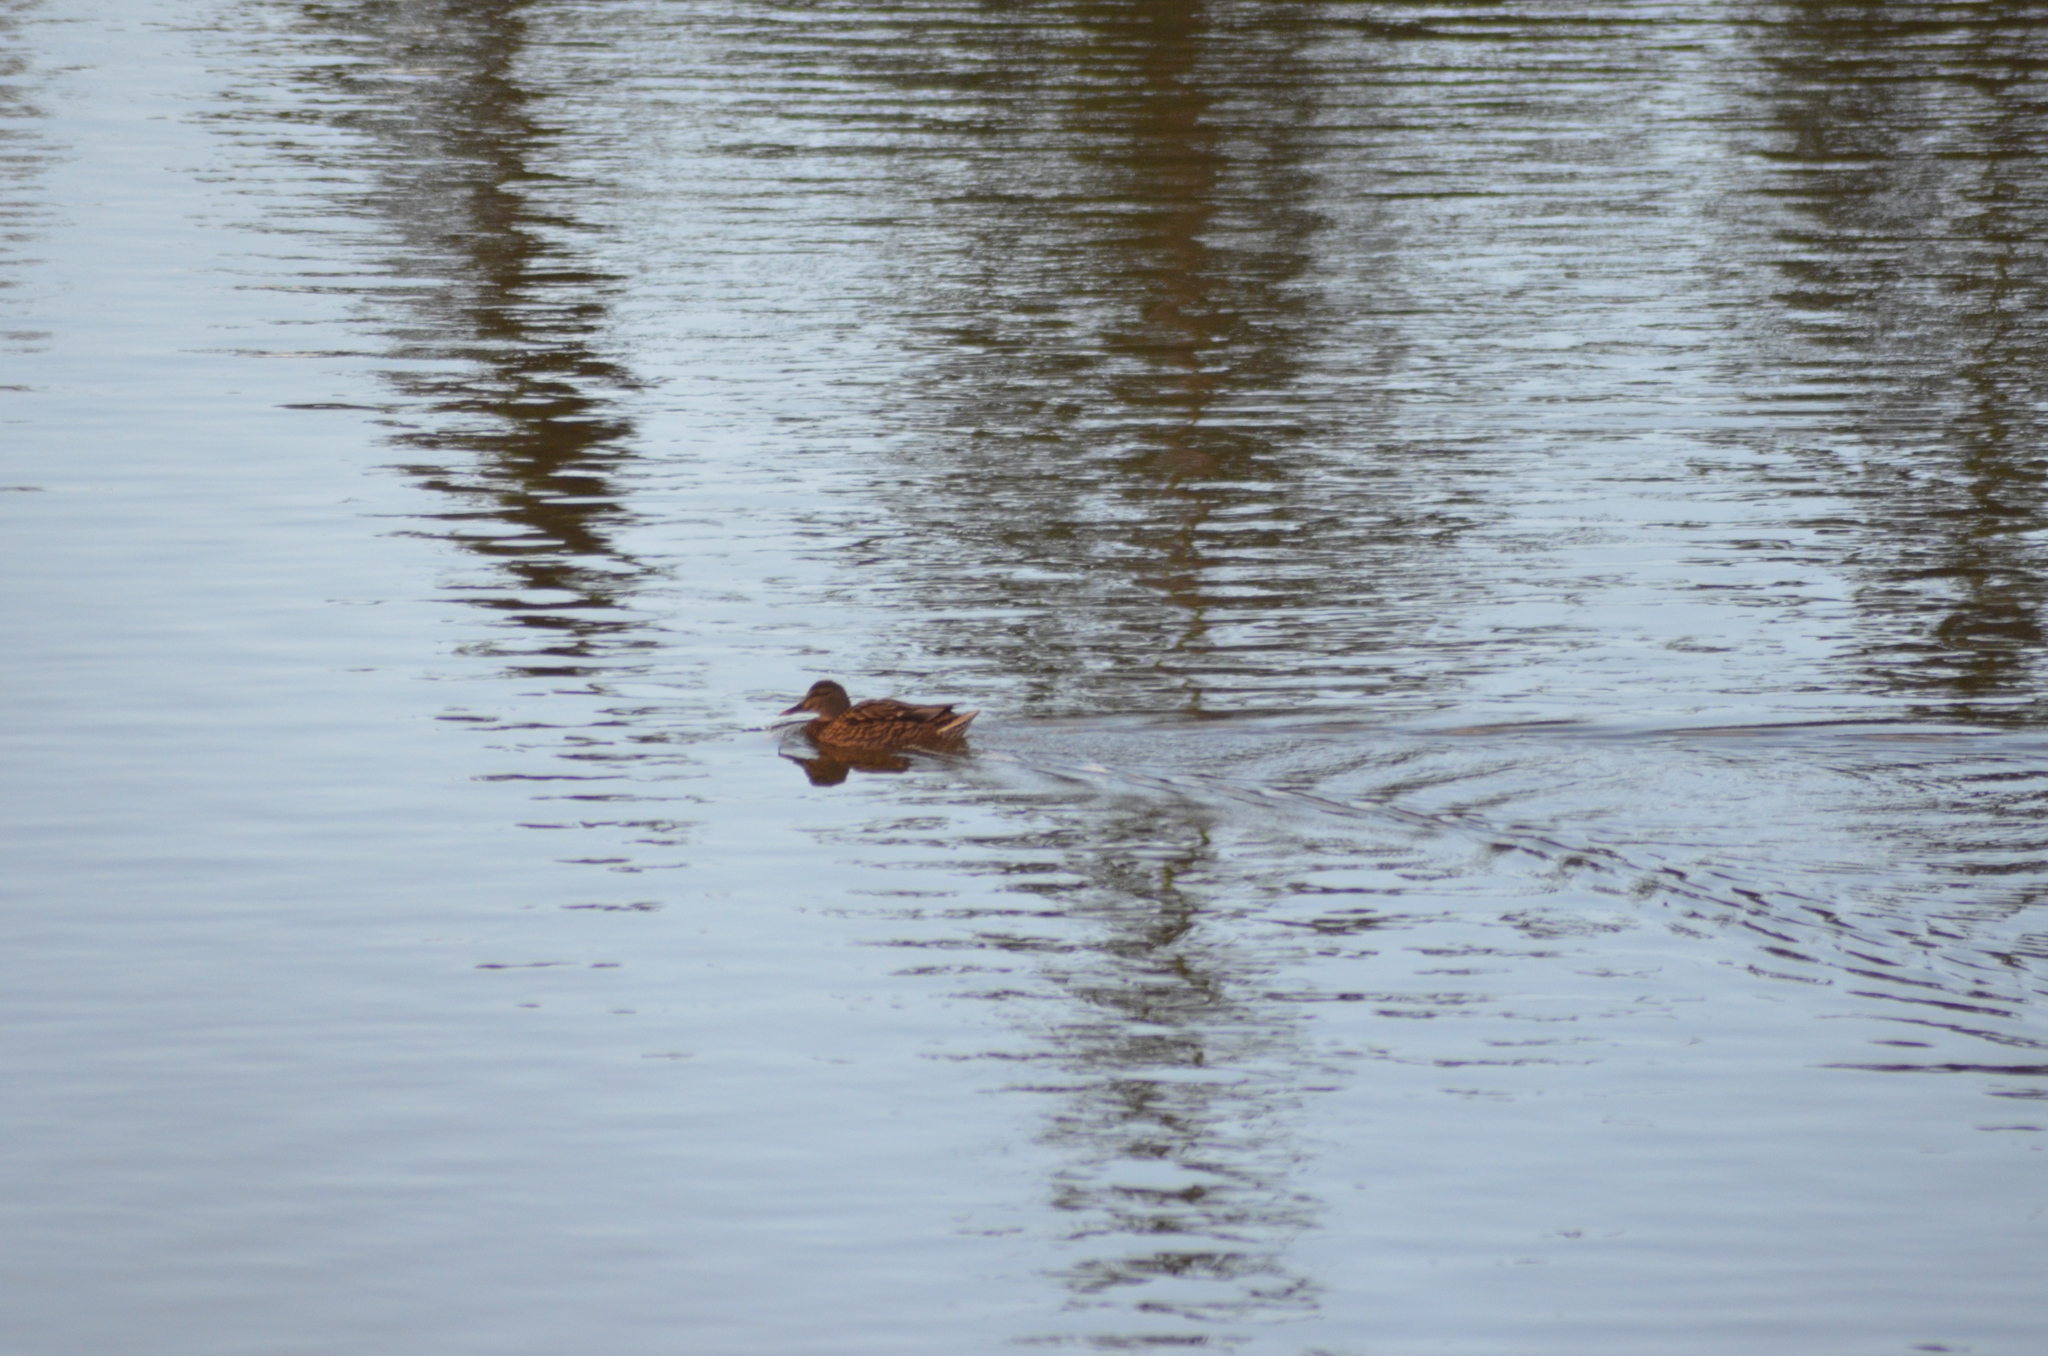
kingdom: Animalia
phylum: Chordata
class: Aves
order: Anseriformes
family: Anatidae
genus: Anas
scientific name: Anas platyrhynchos
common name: Mallard
